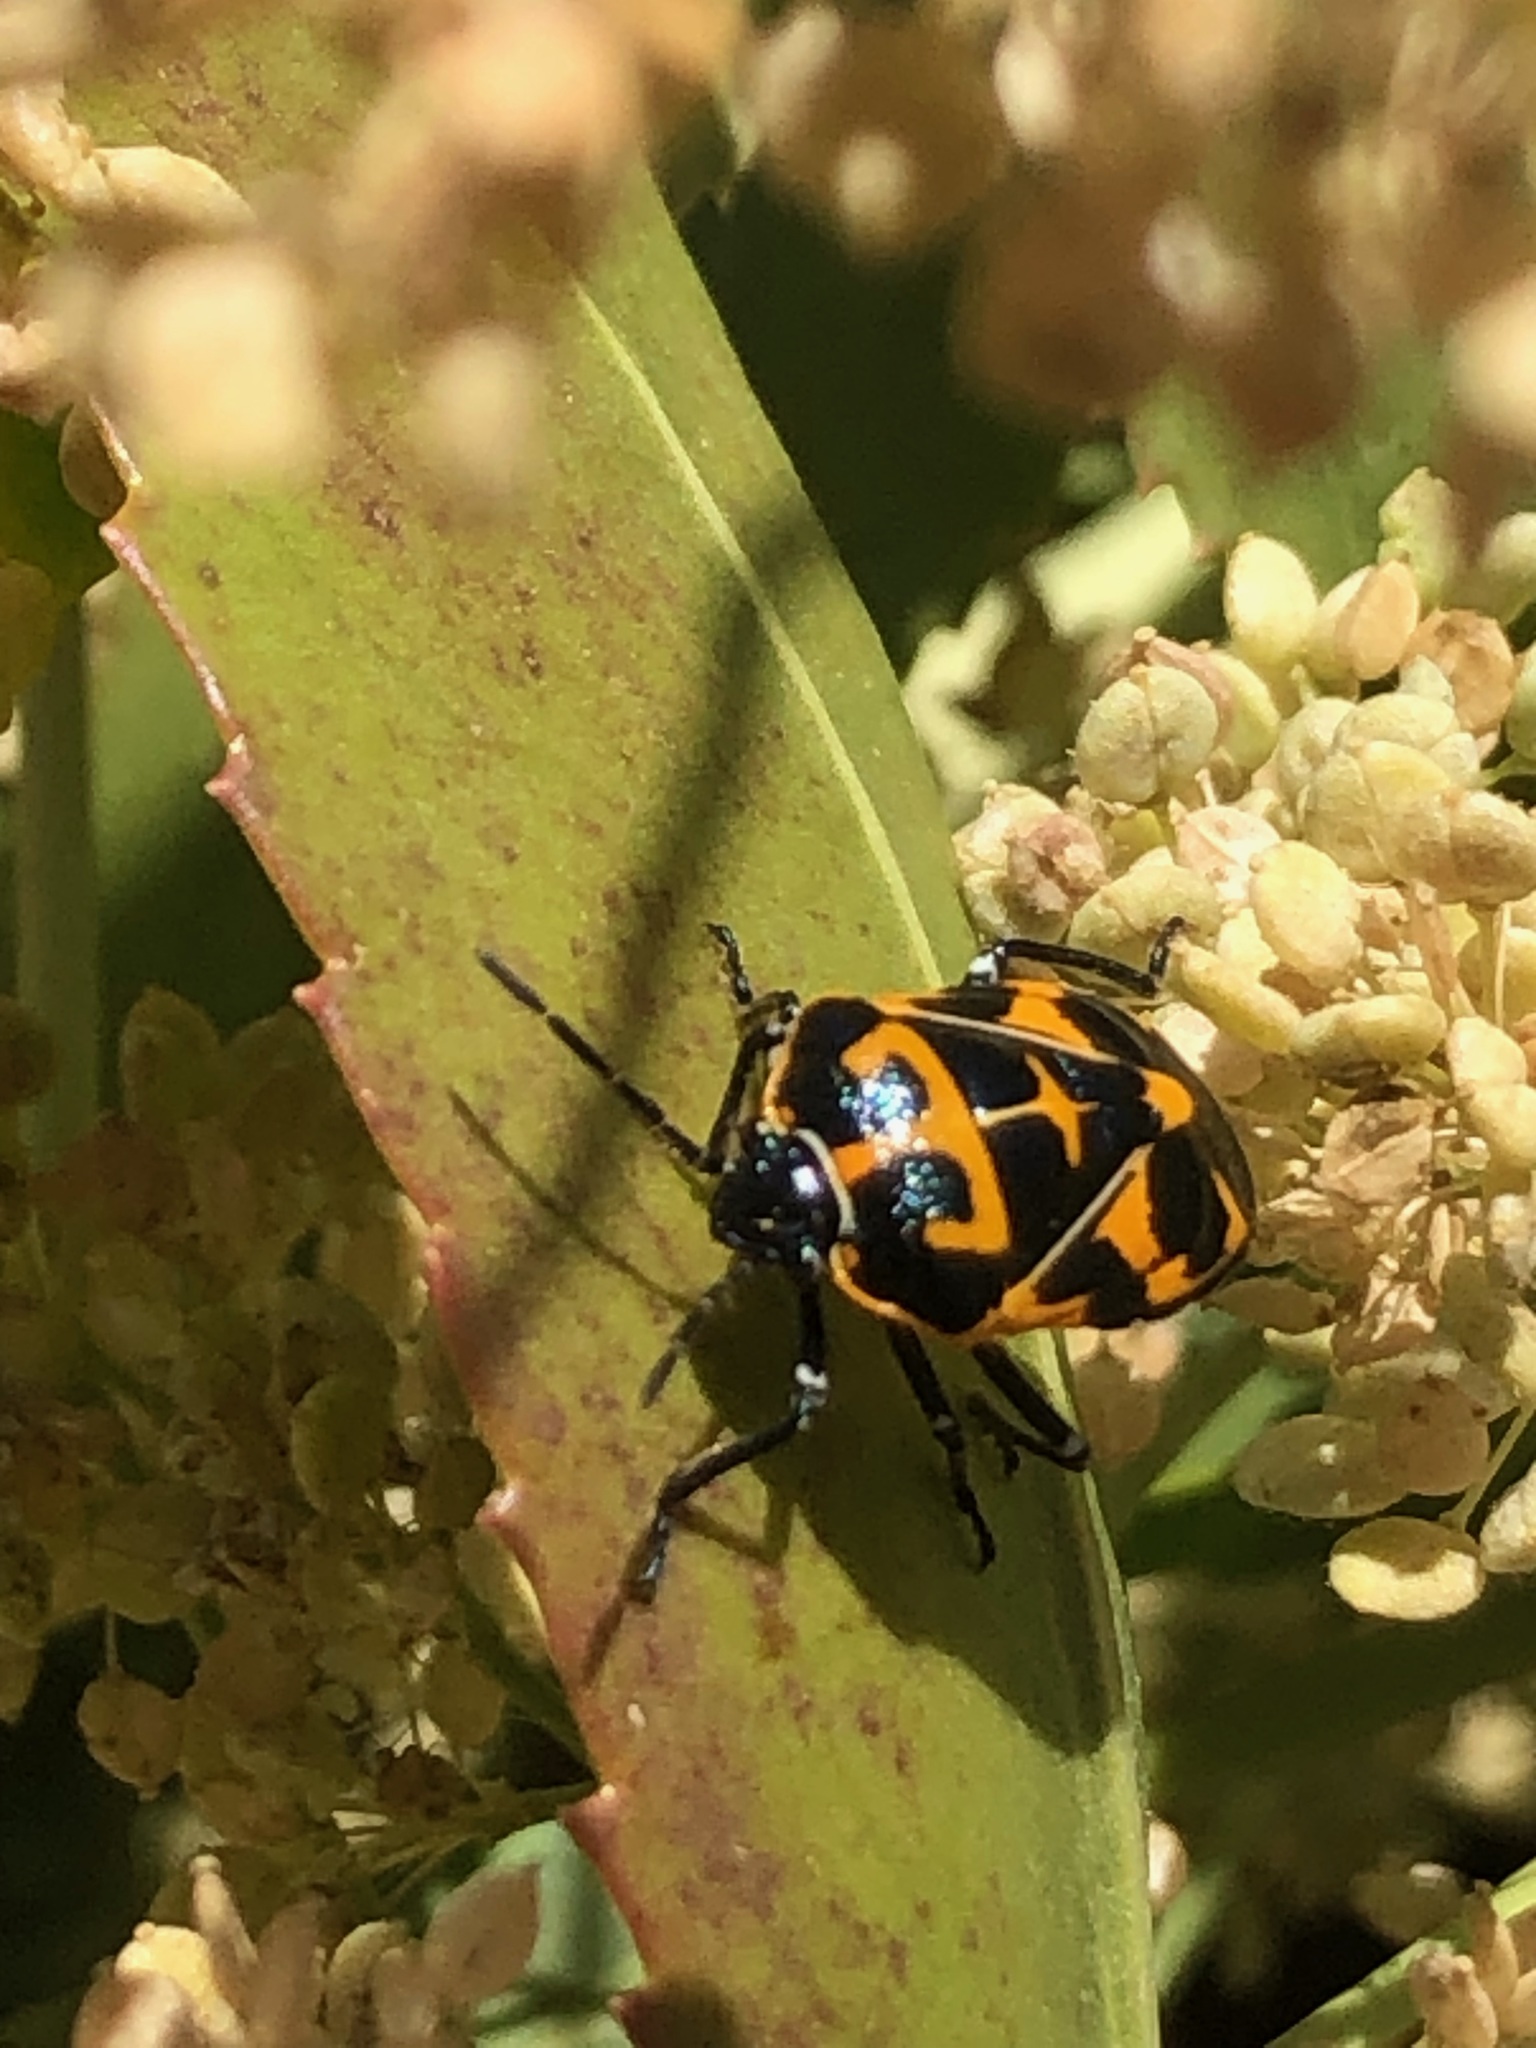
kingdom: Animalia
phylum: Arthropoda
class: Insecta
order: Hemiptera
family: Pentatomidae
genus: Murgantia
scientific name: Murgantia histrionica
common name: Harlequin bug
